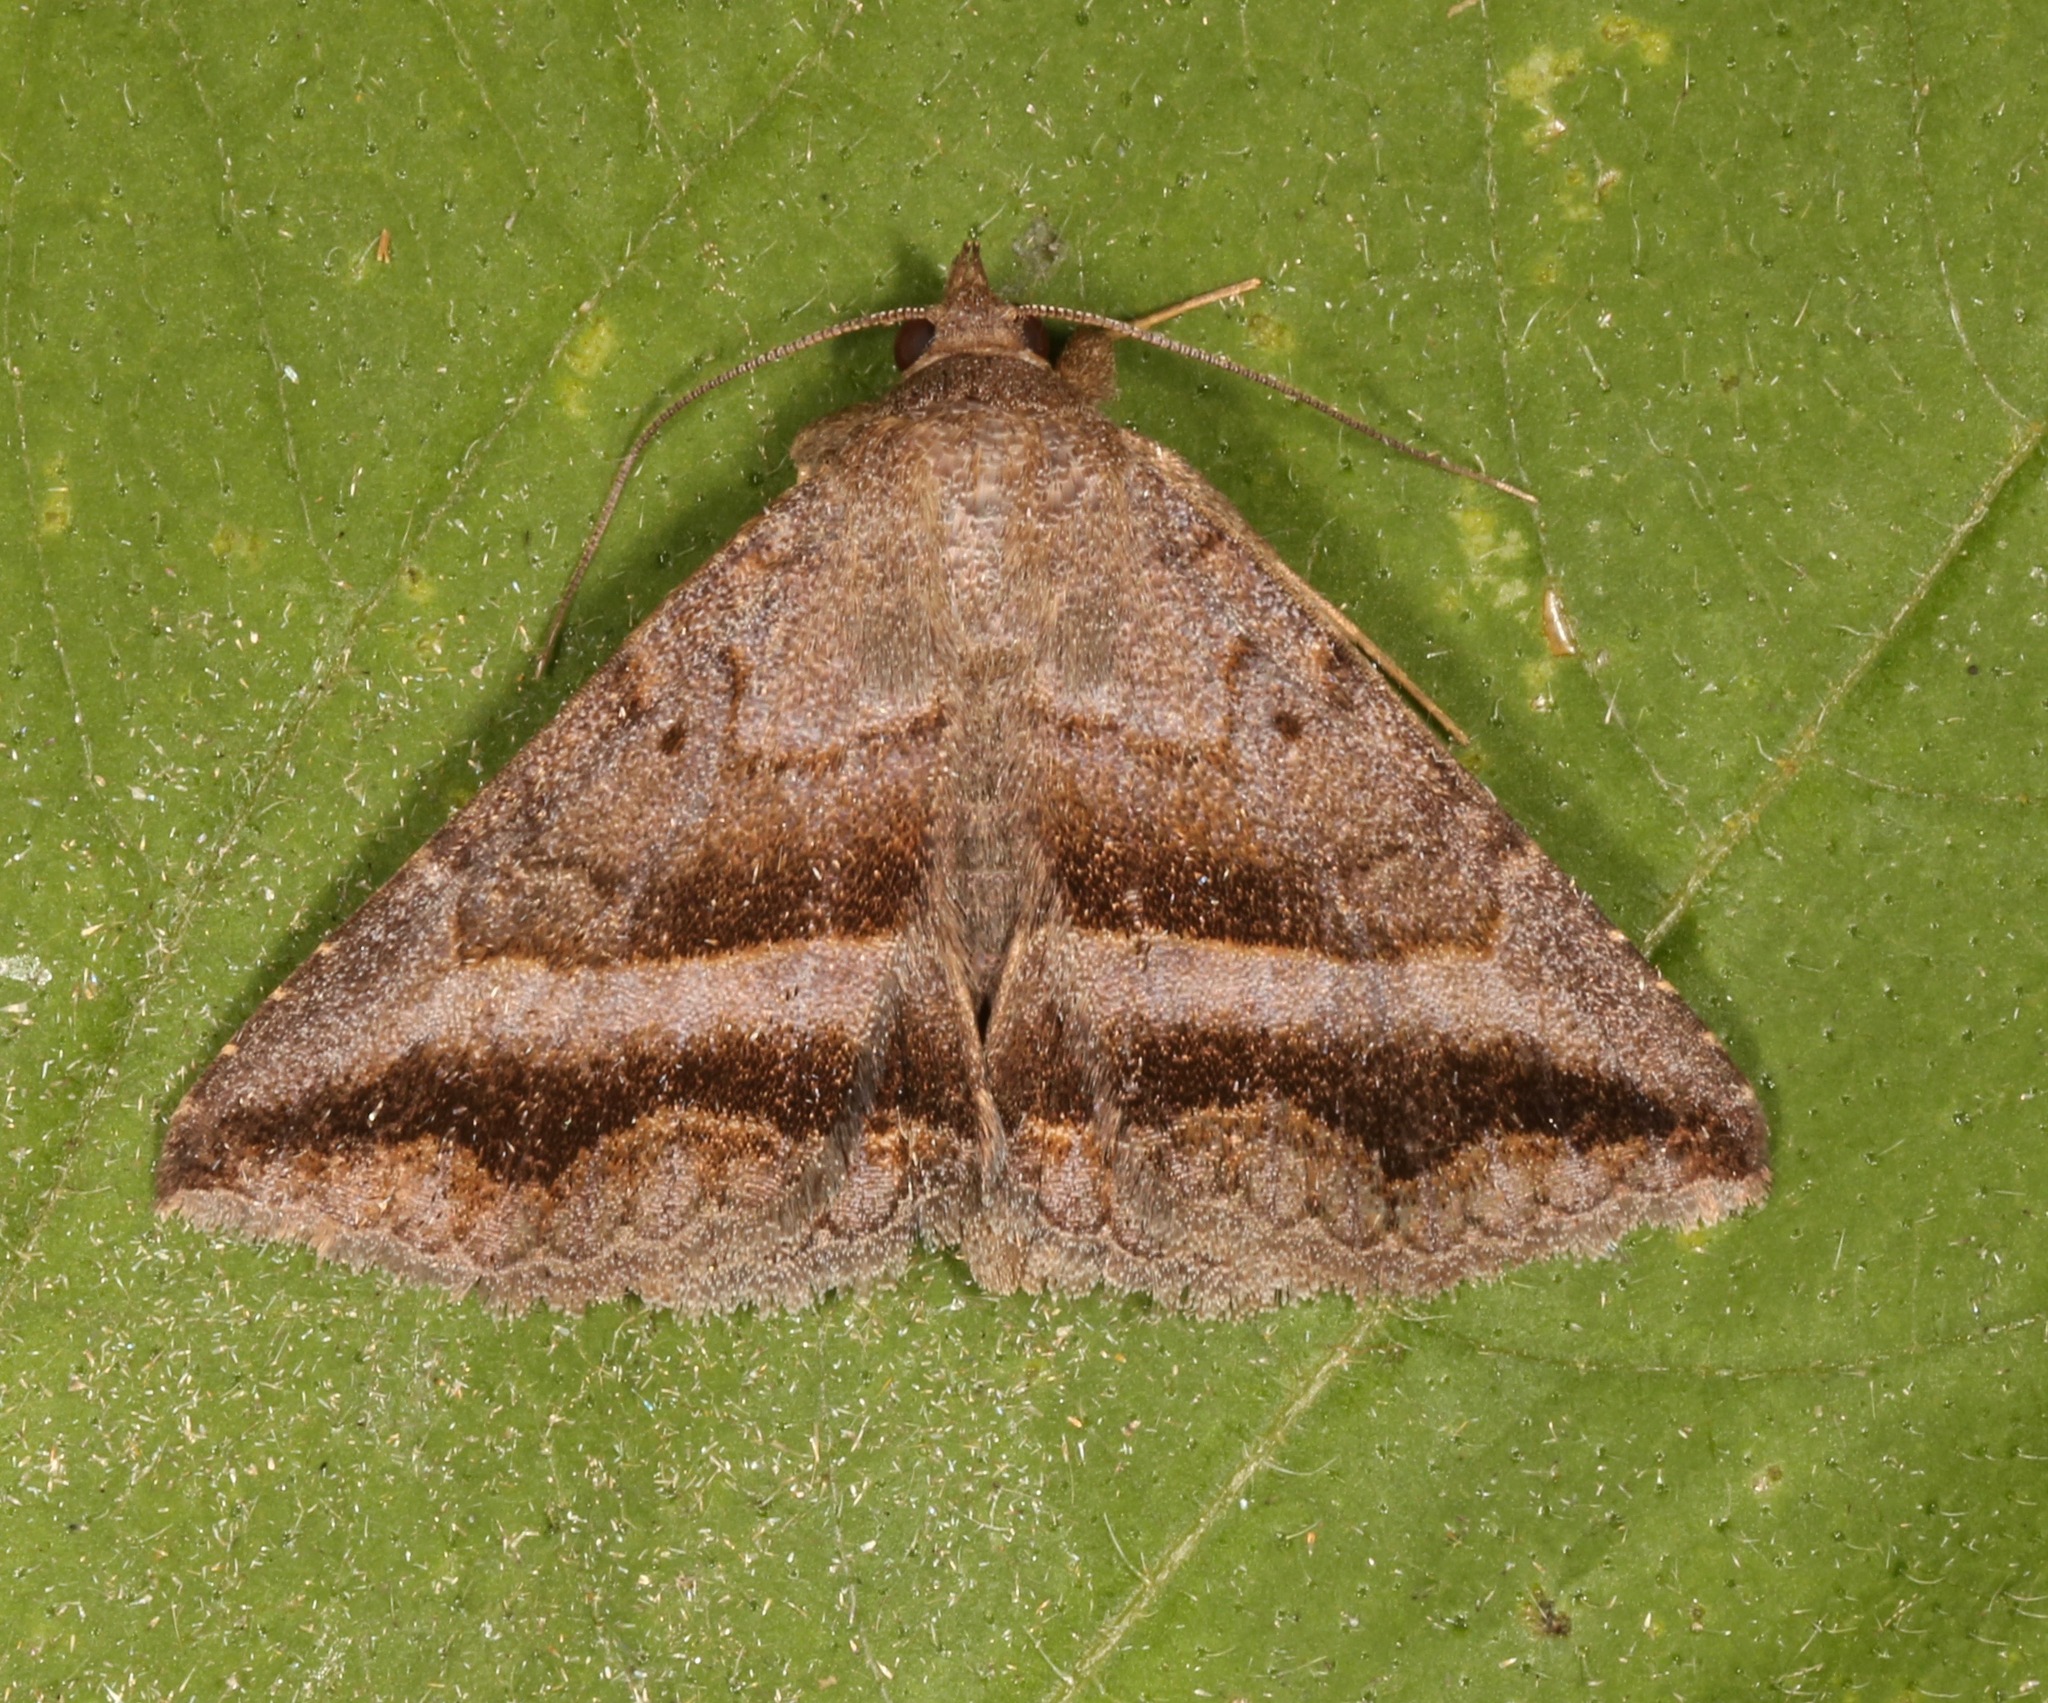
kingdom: Animalia
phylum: Arthropoda
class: Insecta
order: Lepidoptera
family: Erebidae
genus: Lesmone
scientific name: Lesmone griseipennis
